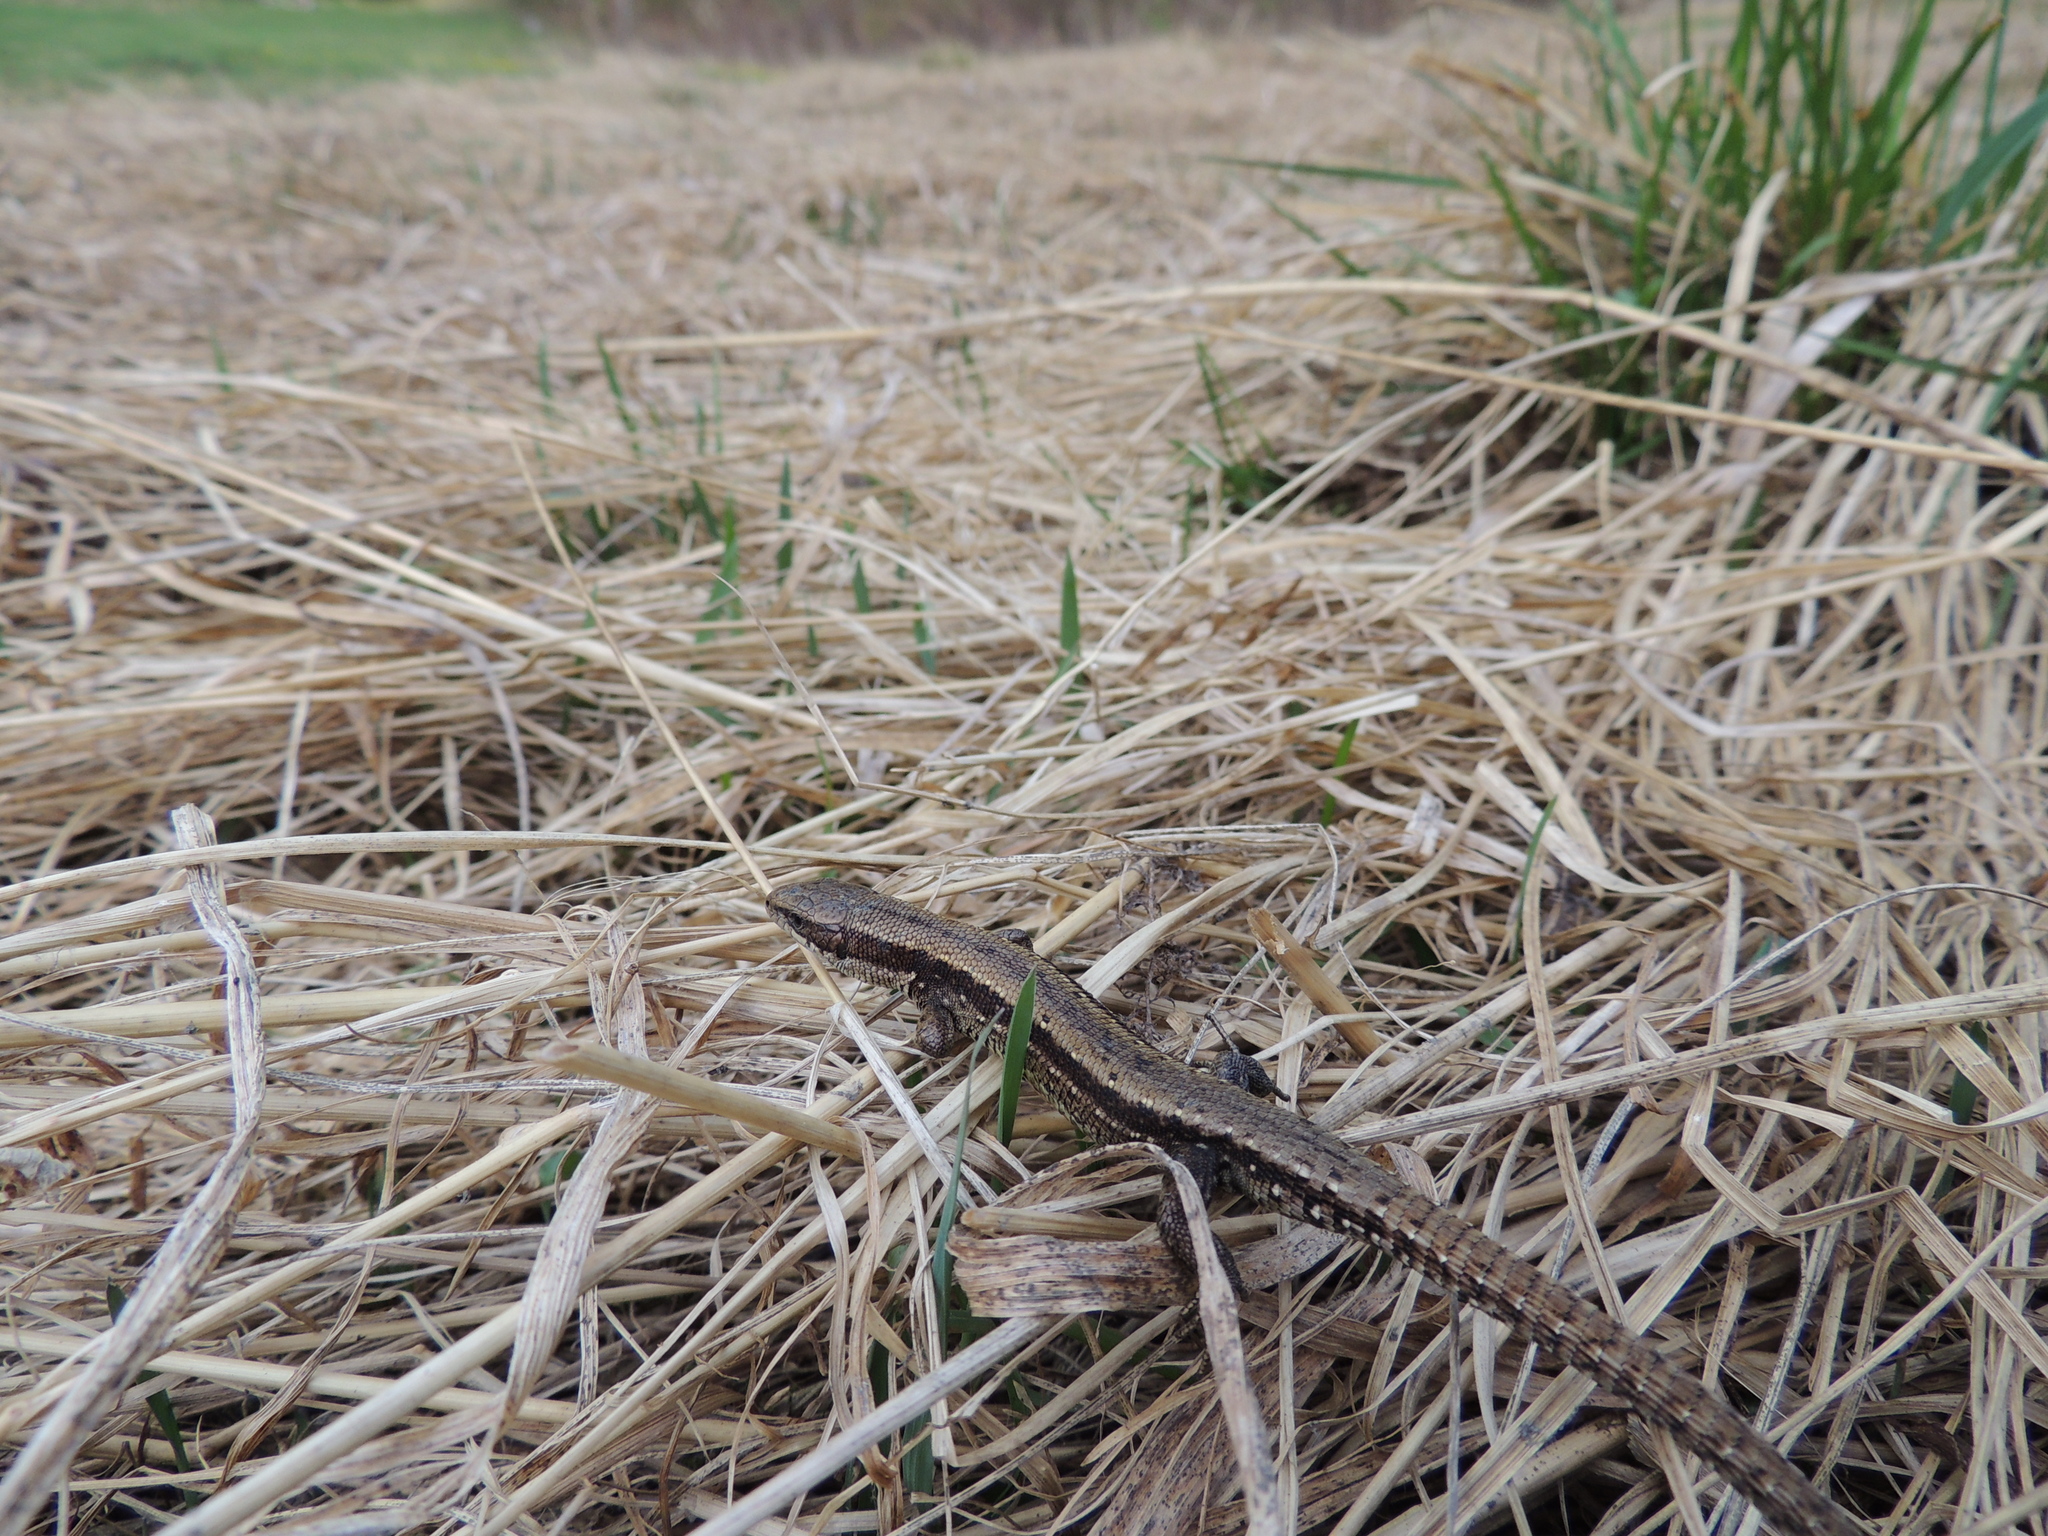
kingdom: Animalia
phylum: Chordata
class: Squamata
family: Lacertidae
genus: Zootoca
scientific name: Zootoca vivipara
